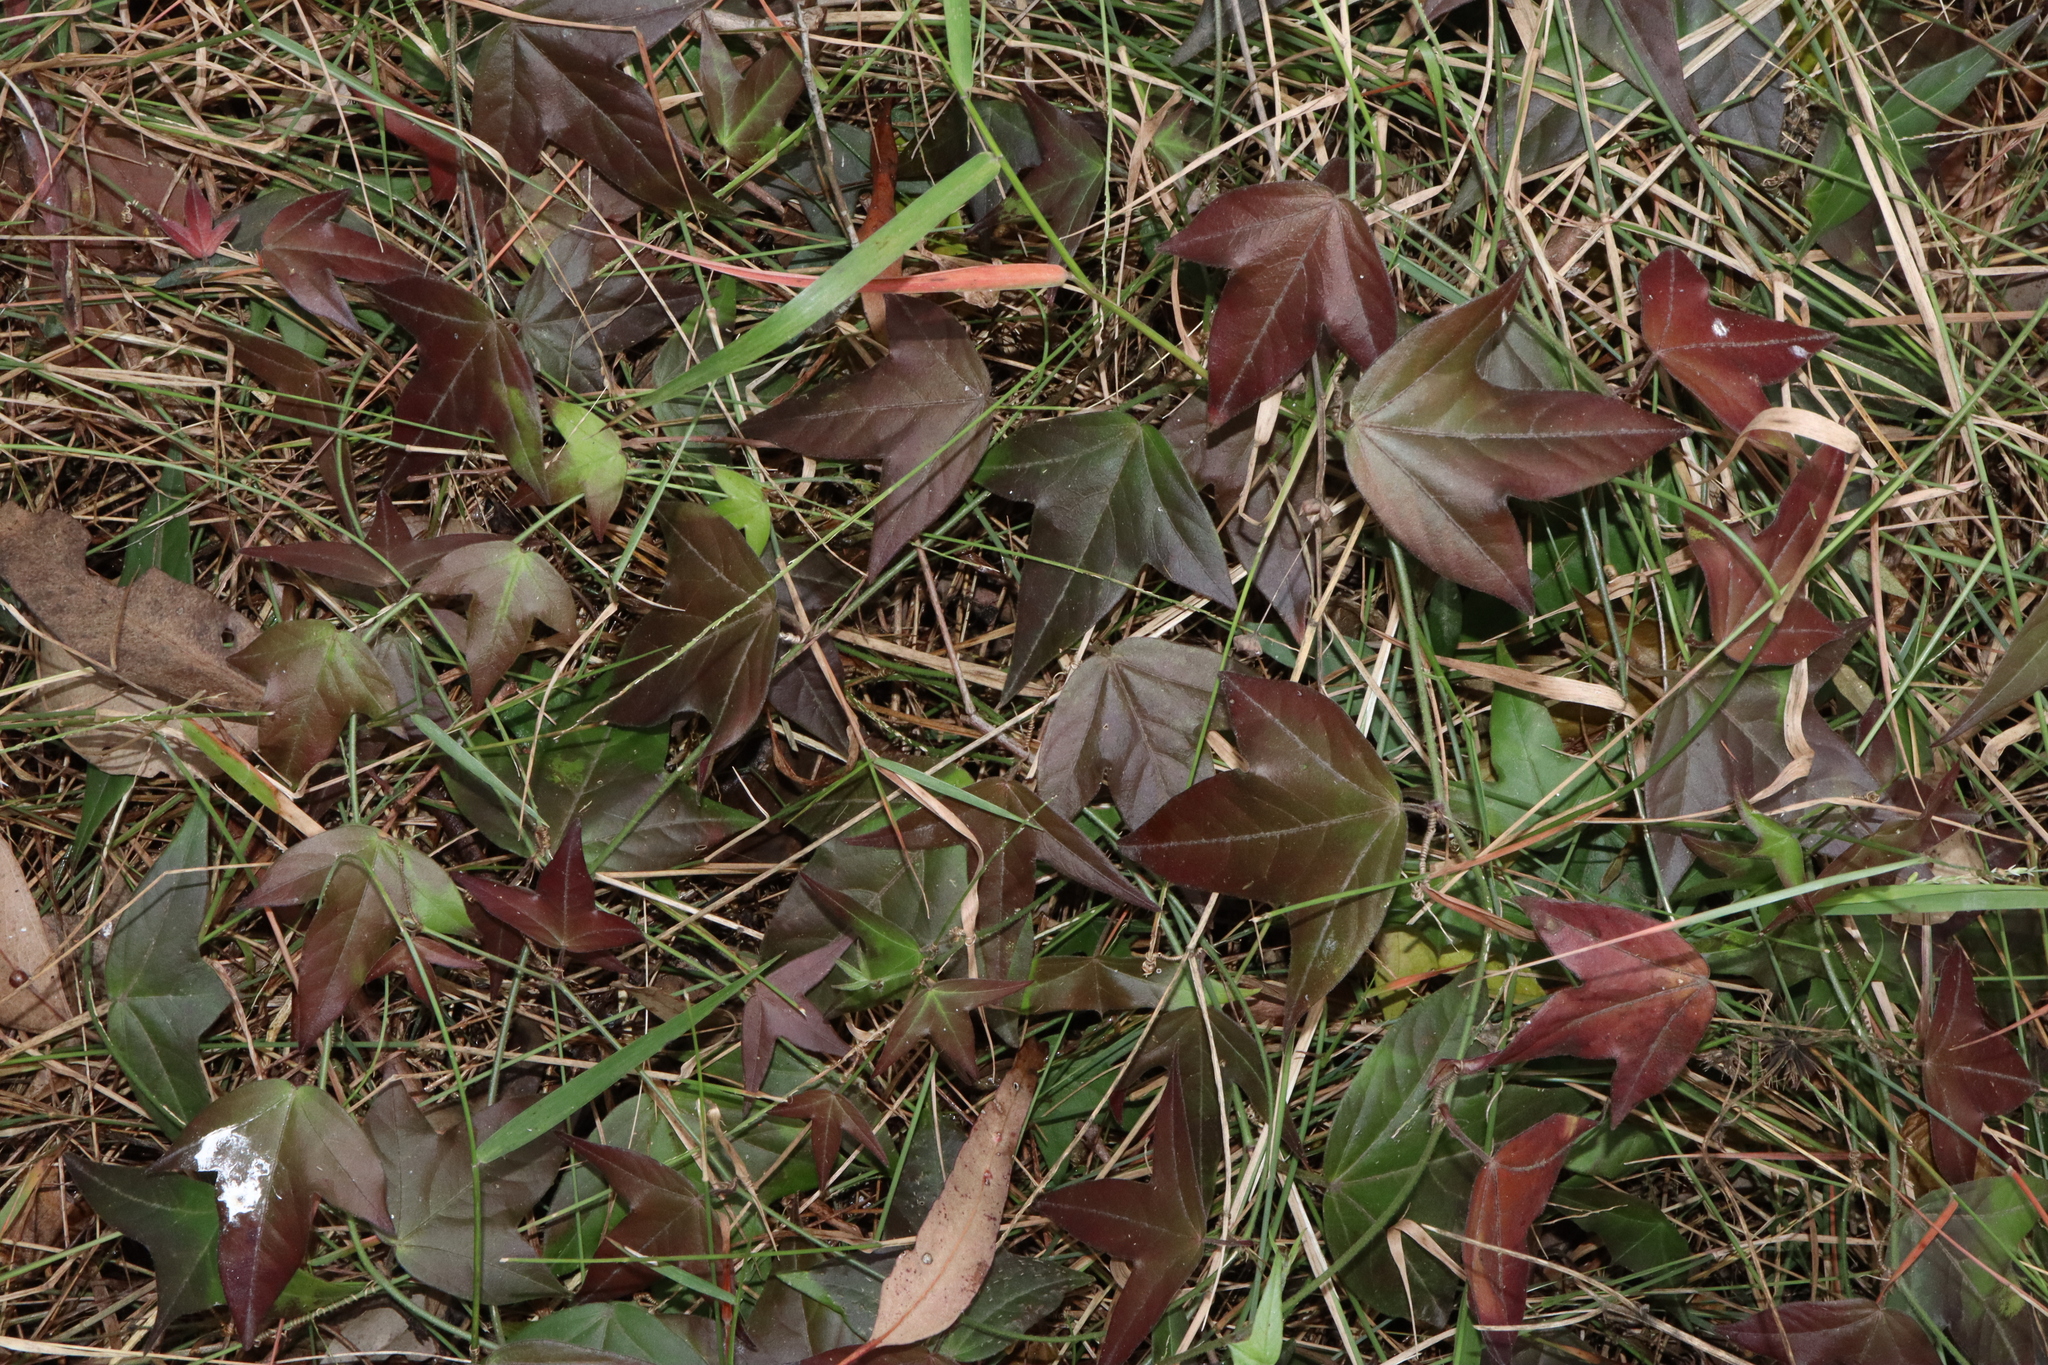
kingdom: Plantae
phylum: Tracheophyta
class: Magnoliopsida
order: Malpighiales
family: Passifloraceae
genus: Passiflora
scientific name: Passiflora suberosa
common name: Wild passionfruit
